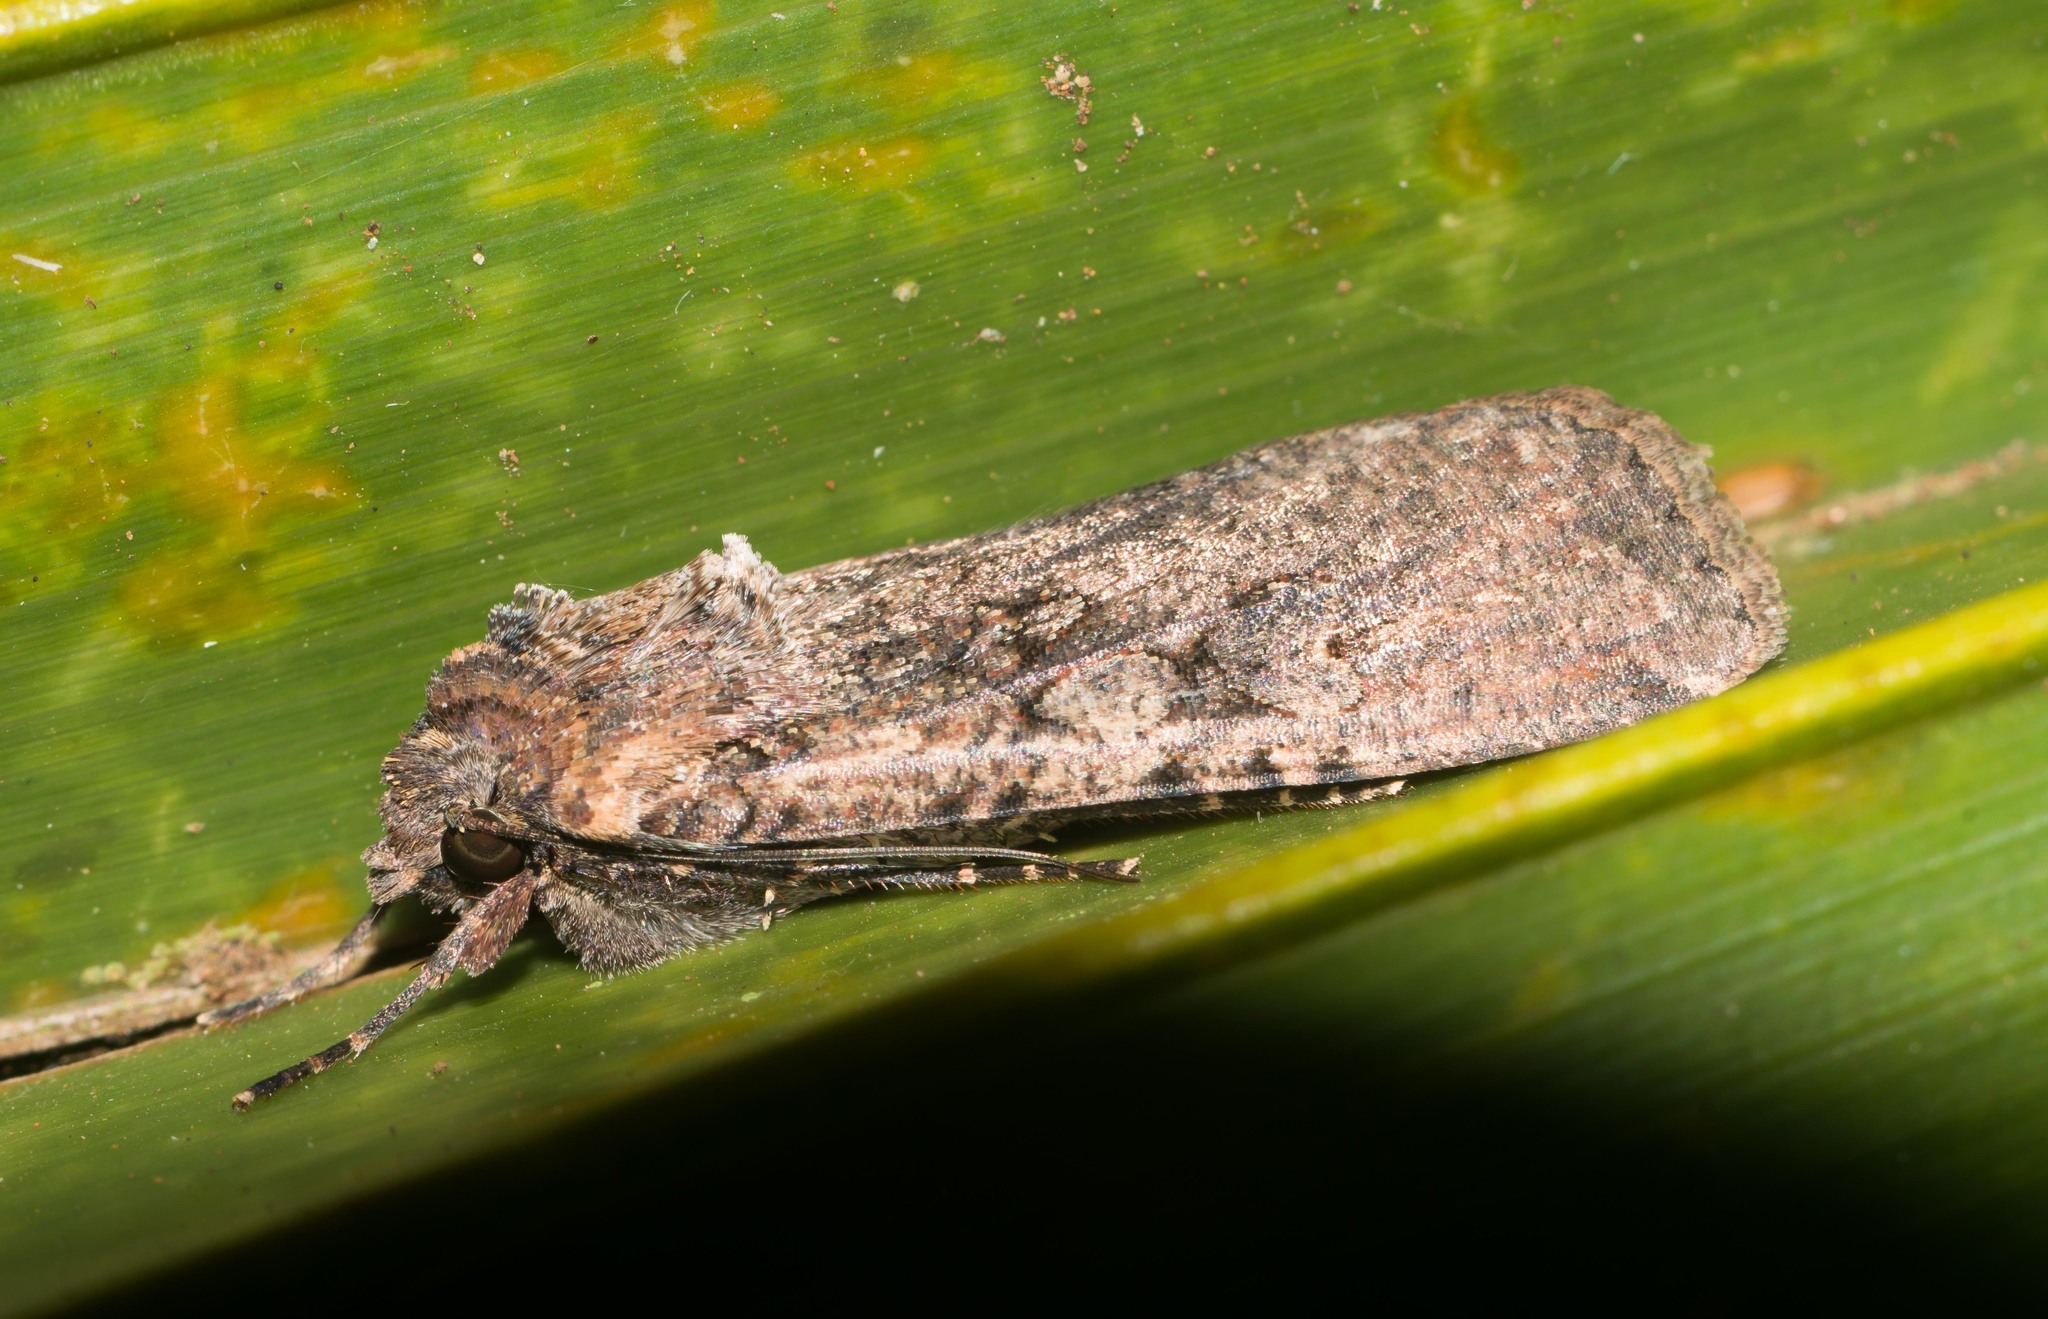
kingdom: Animalia
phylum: Arthropoda
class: Insecta
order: Lepidoptera
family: Noctuidae
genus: Peridroma
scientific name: Peridroma saucia
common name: Pearly underwing
